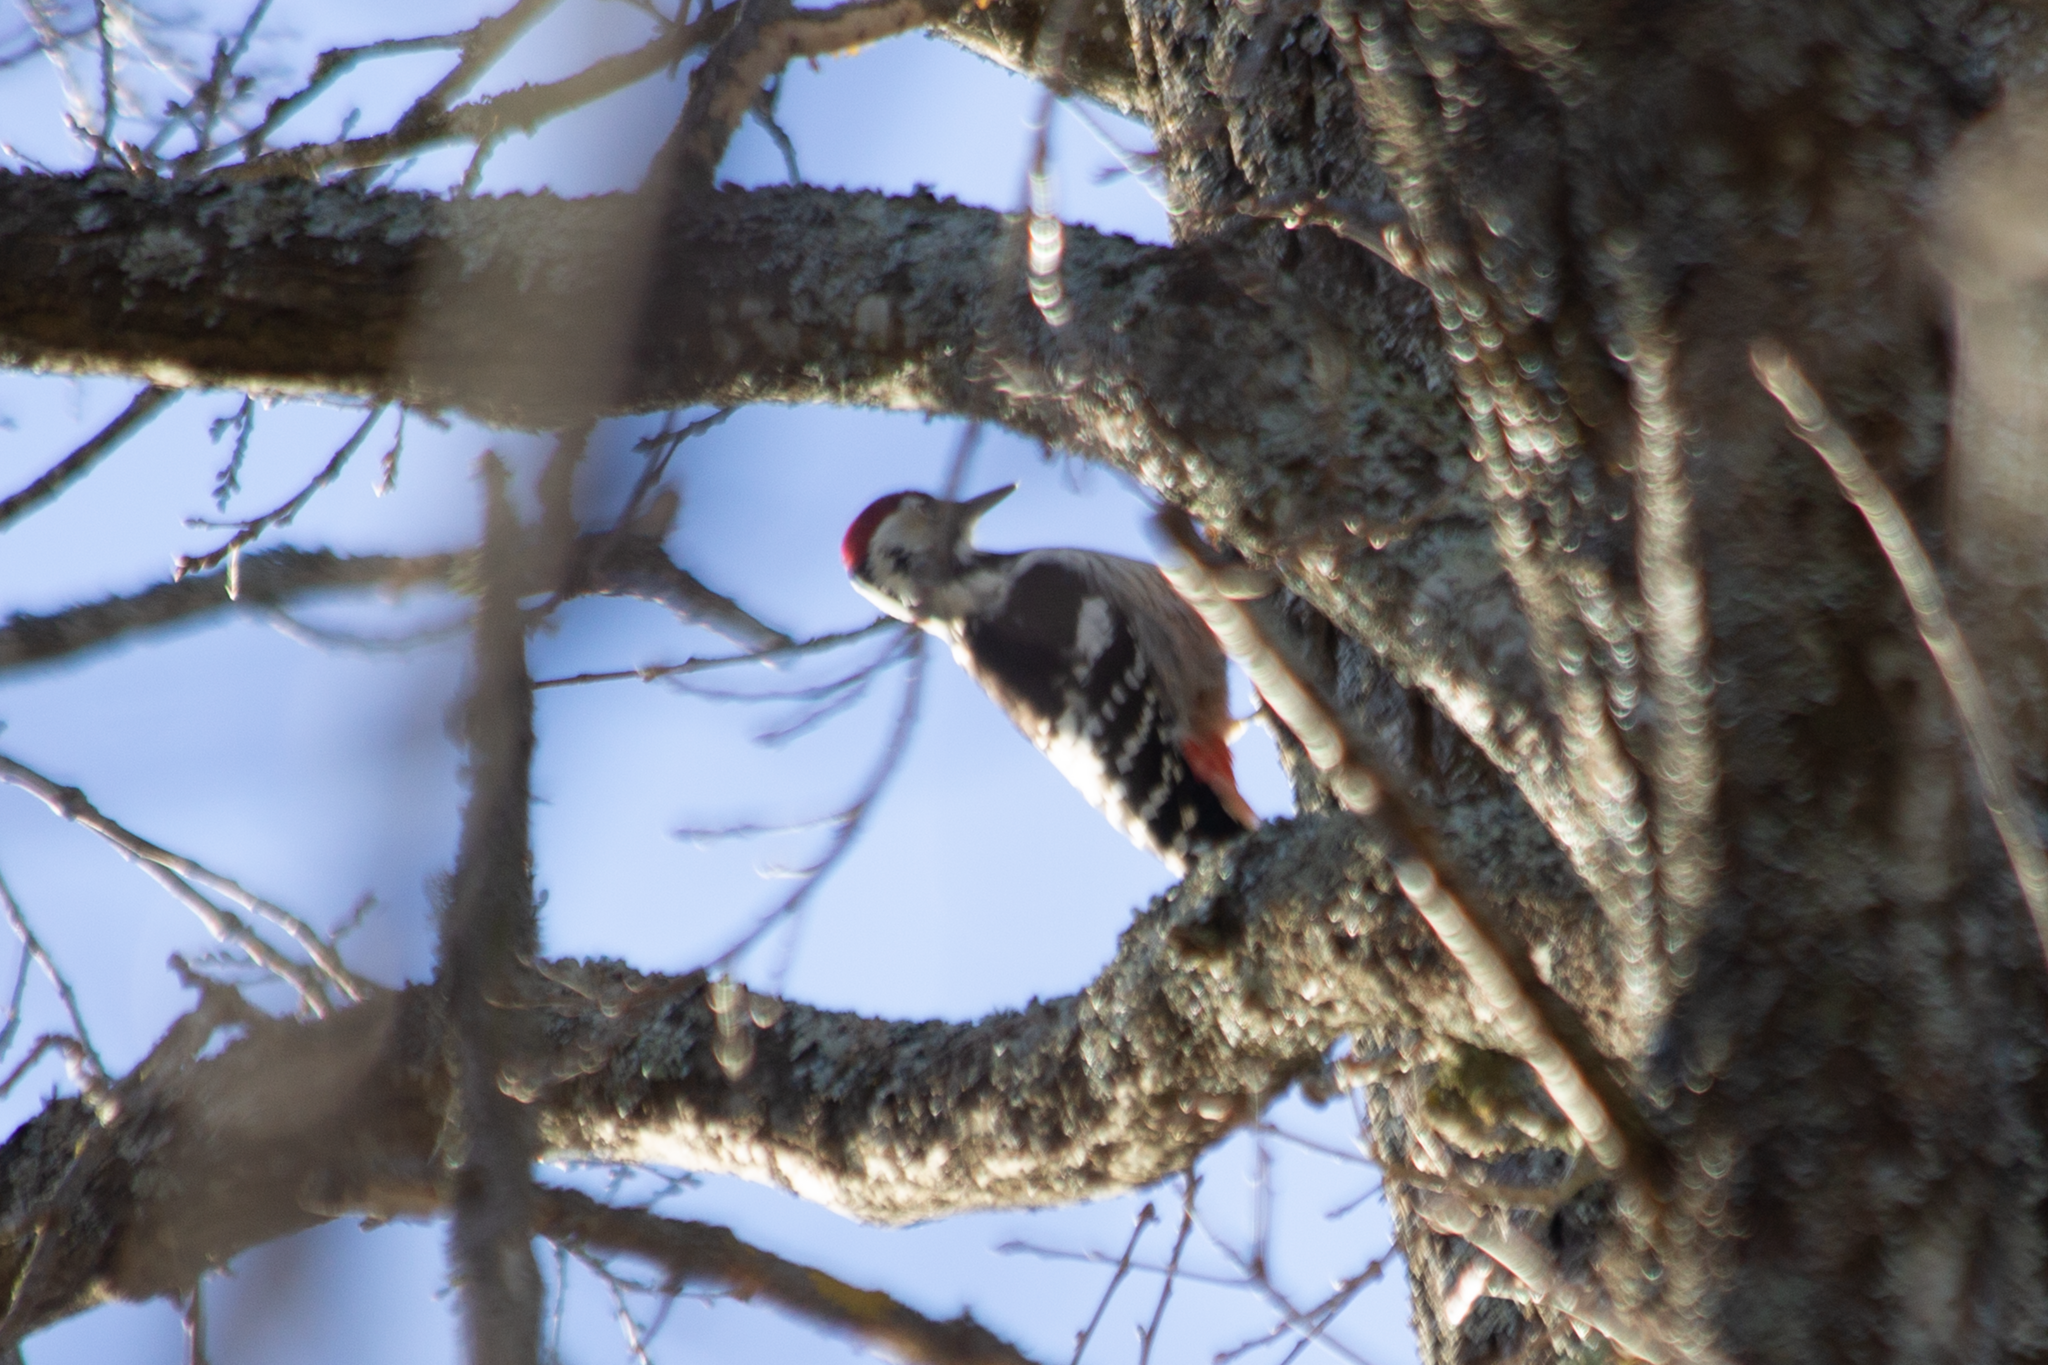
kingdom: Animalia
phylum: Chordata
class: Aves
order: Piciformes
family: Picidae
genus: Dendrocopos
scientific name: Dendrocopos leucotos
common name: White-backed woodpecker
